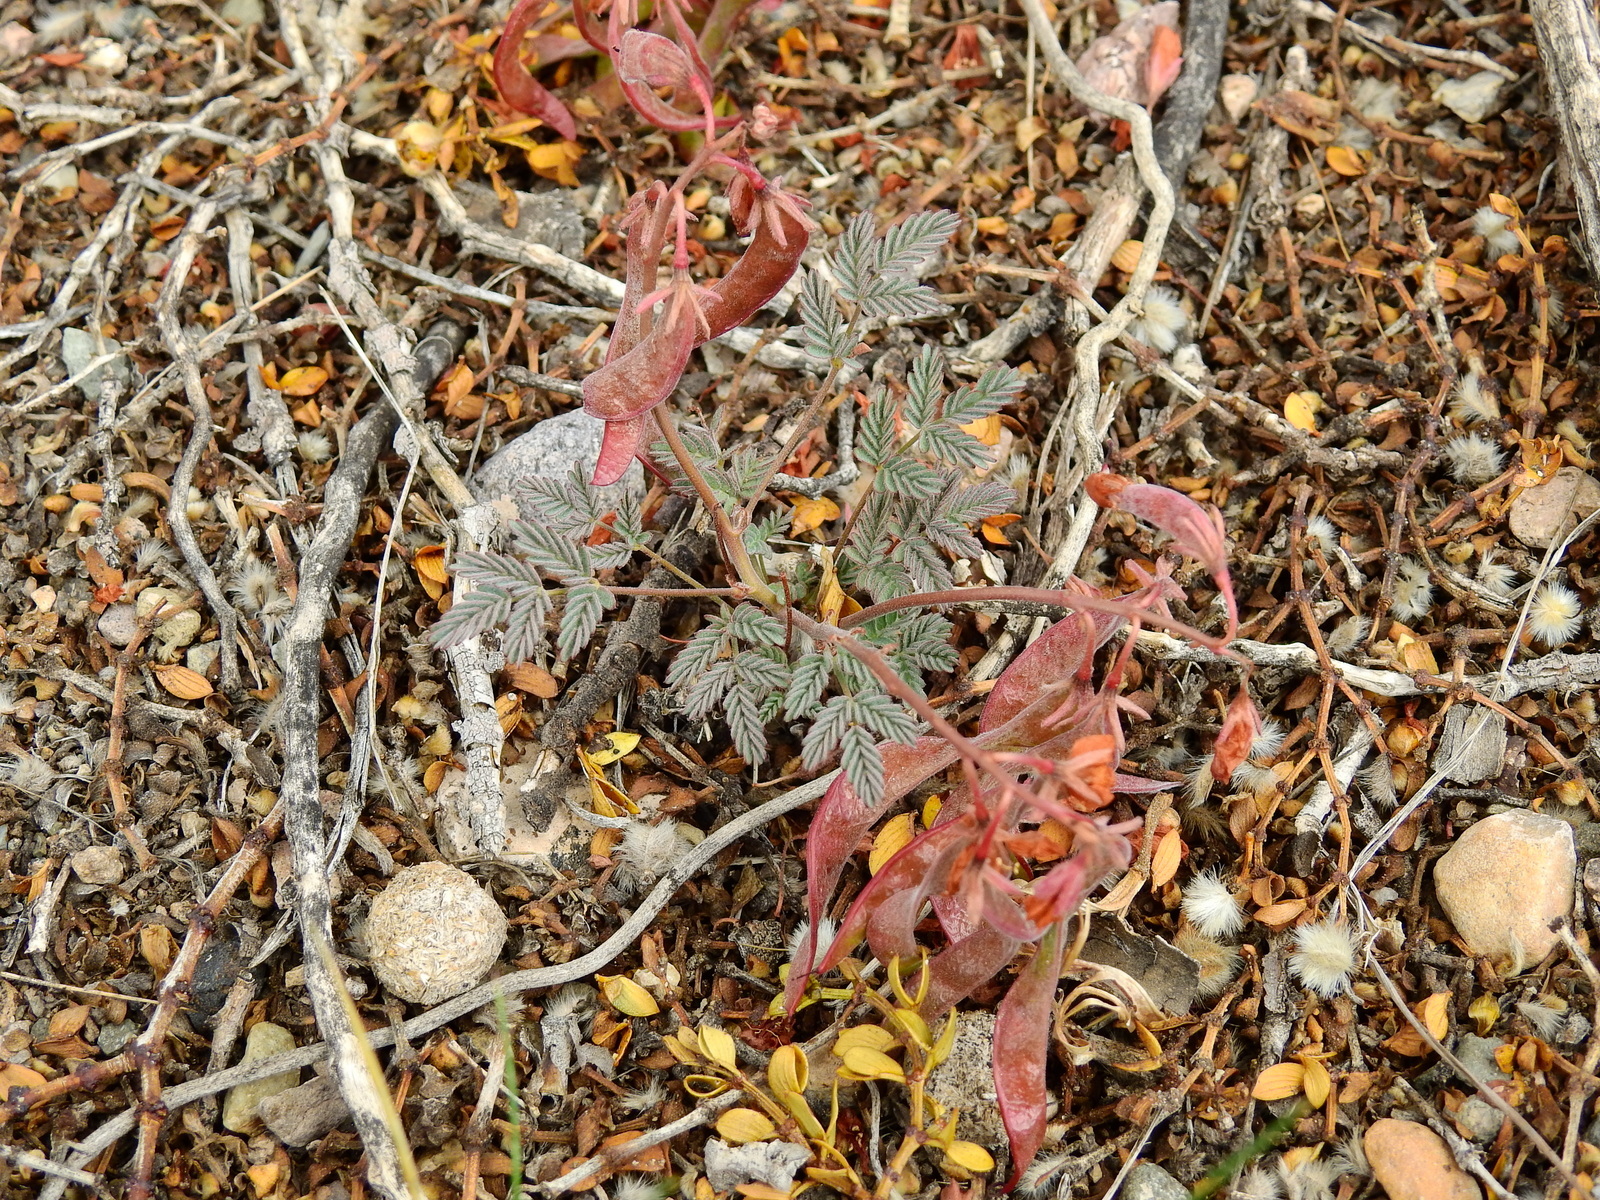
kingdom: Plantae
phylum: Tracheophyta
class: Magnoliopsida
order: Fabales
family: Fabaceae
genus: Hoffmannseggia
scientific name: Hoffmannseggia erecta
